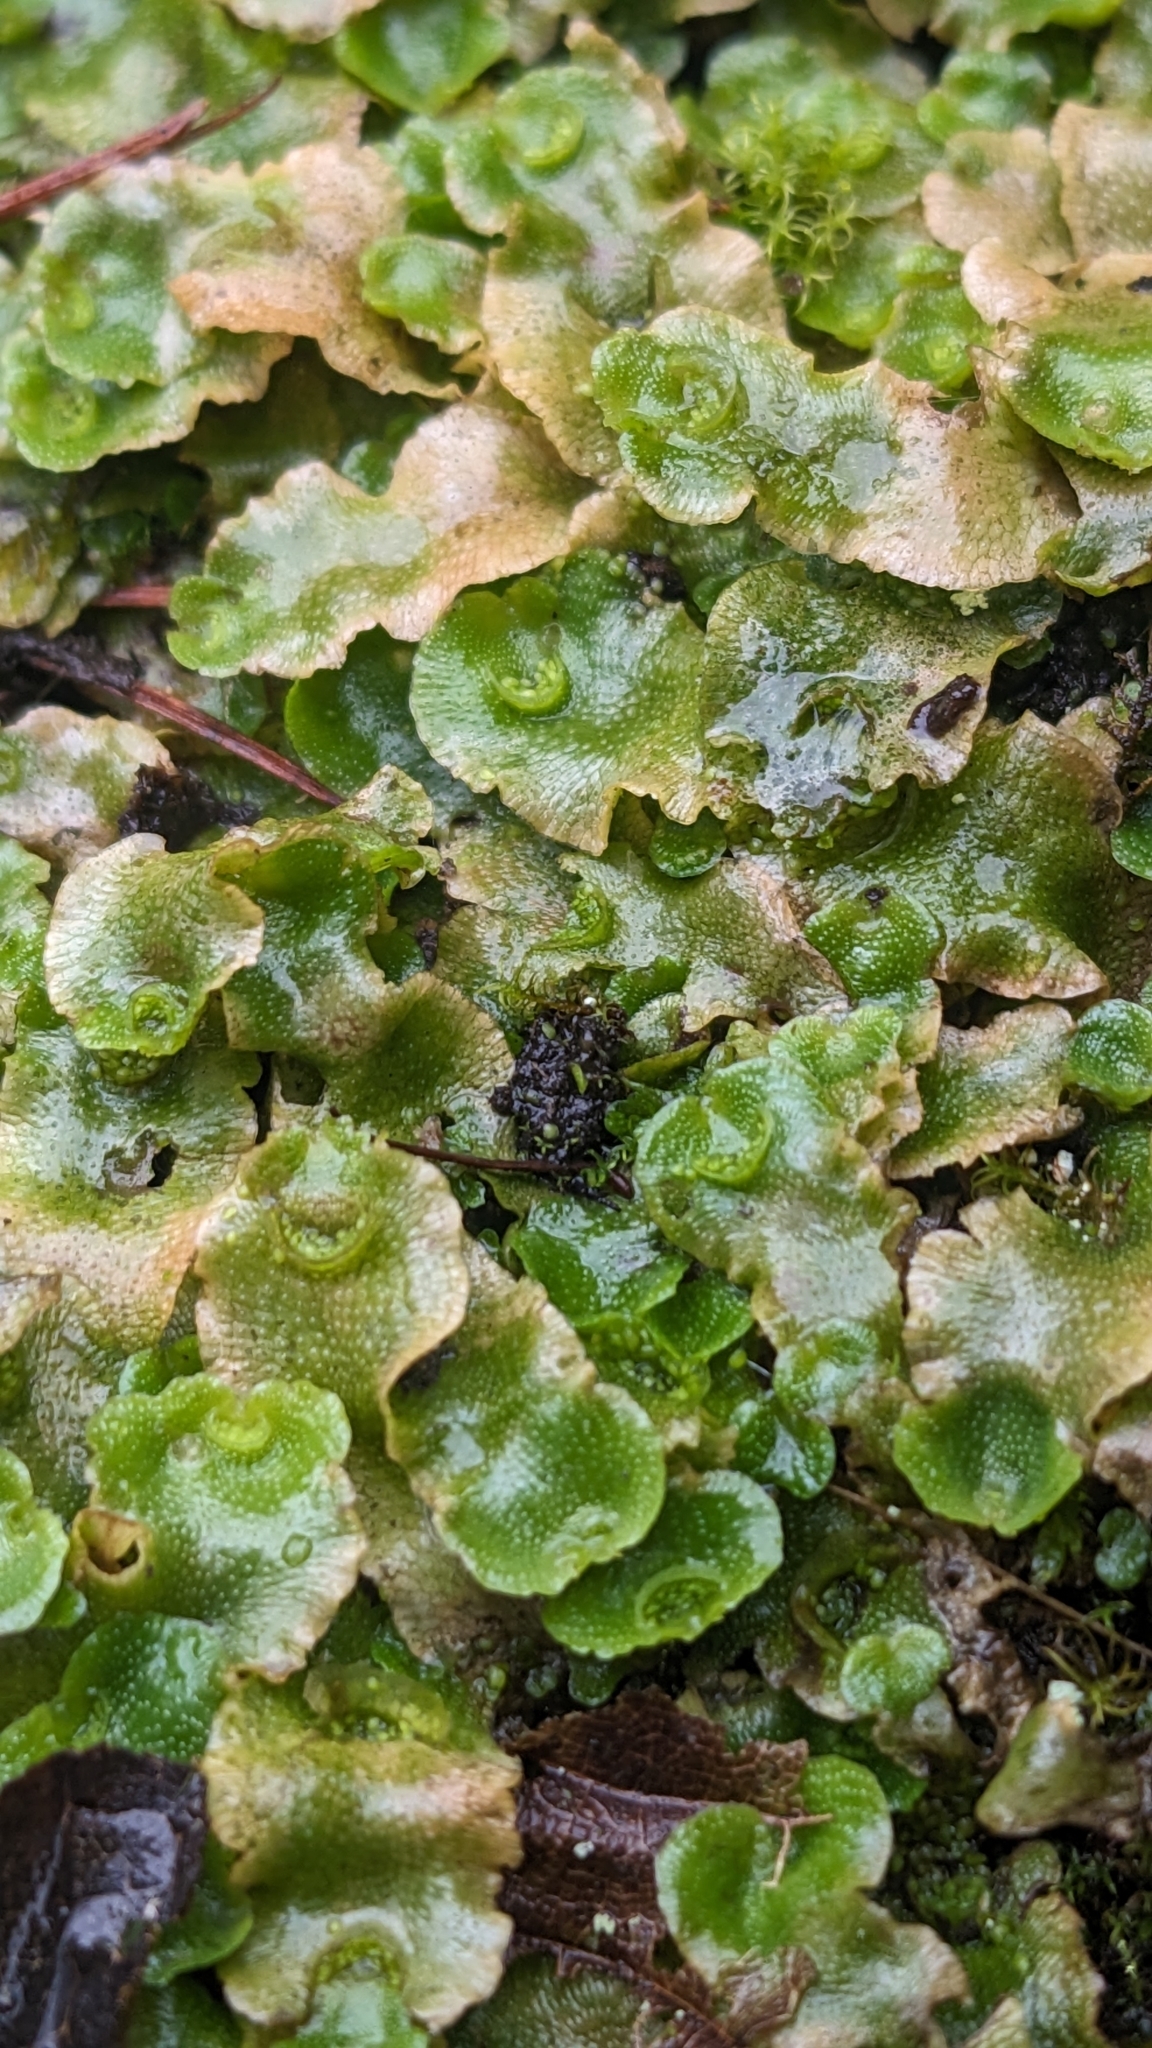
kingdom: Plantae
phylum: Marchantiophyta
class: Marchantiopsida
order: Lunulariales
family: Lunulariaceae
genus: Lunularia
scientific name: Lunularia cruciata
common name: Crescent-cup liverwort
